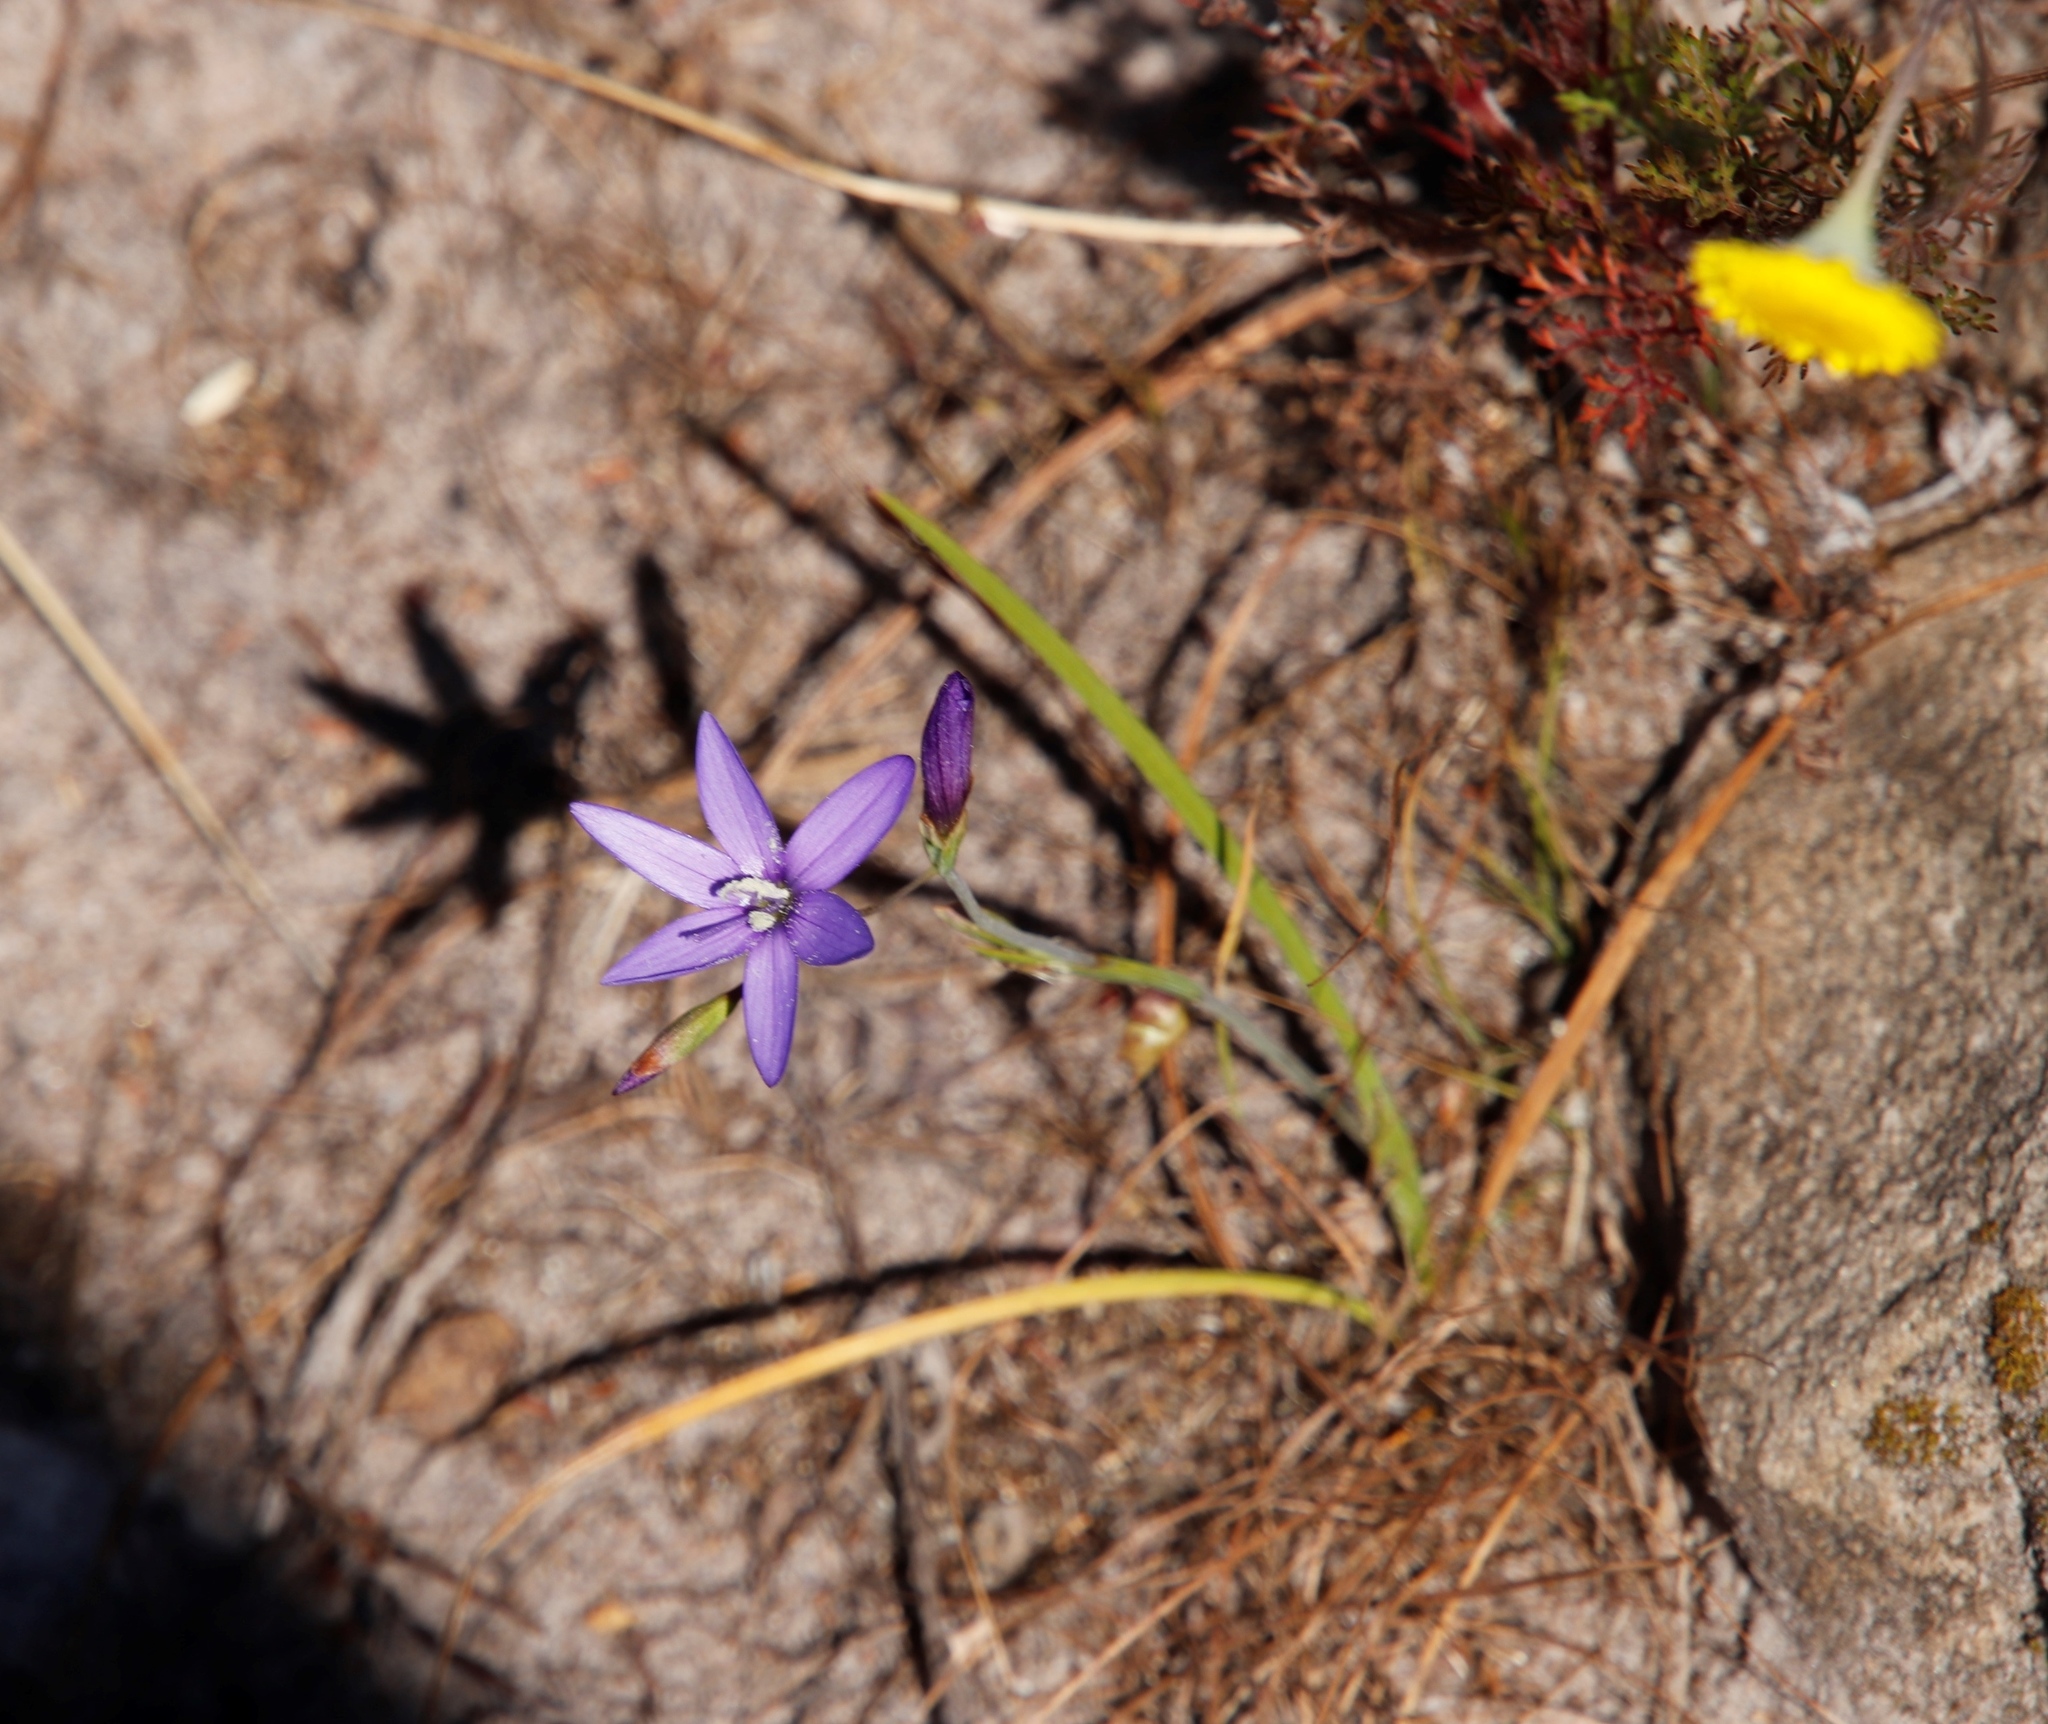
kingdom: Plantae
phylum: Tracheophyta
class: Liliopsida
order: Asparagales
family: Iridaceae
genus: Geissorhiza
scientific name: Geissorhiza aspera
